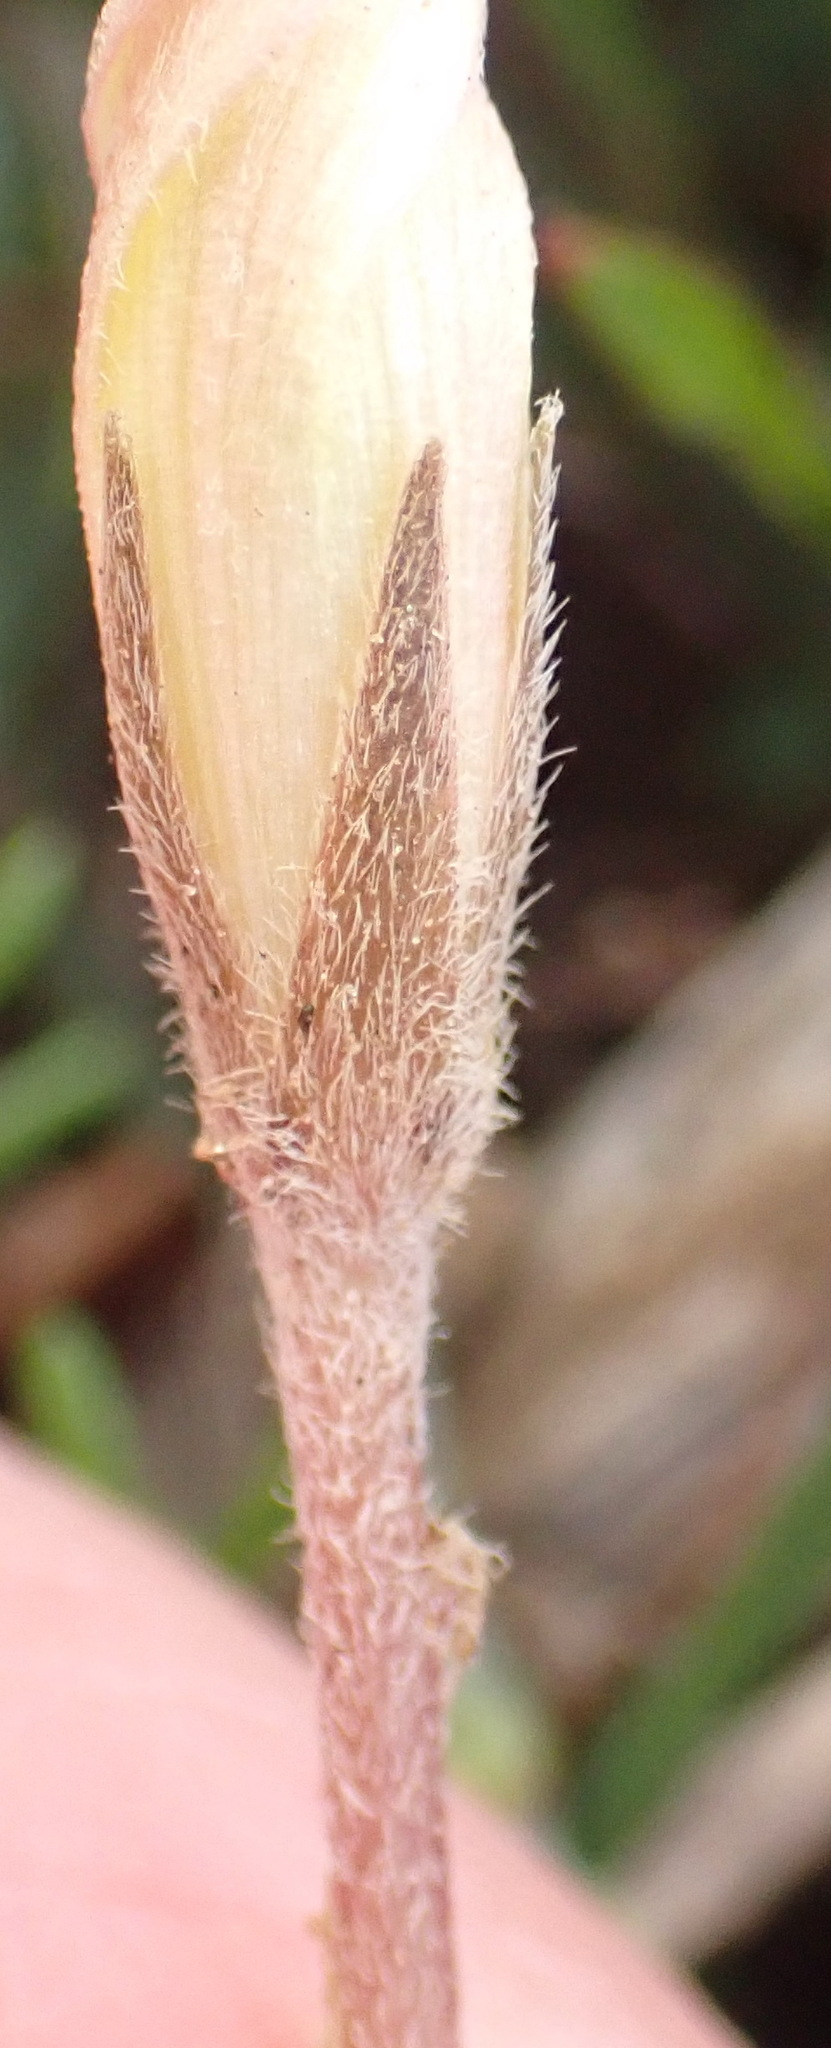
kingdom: Plantae
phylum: Tracheophyta
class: Magnoliopsida
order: Oxalidales
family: Oxalidaceae
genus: Oxalis
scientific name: Oxalis falcatula
